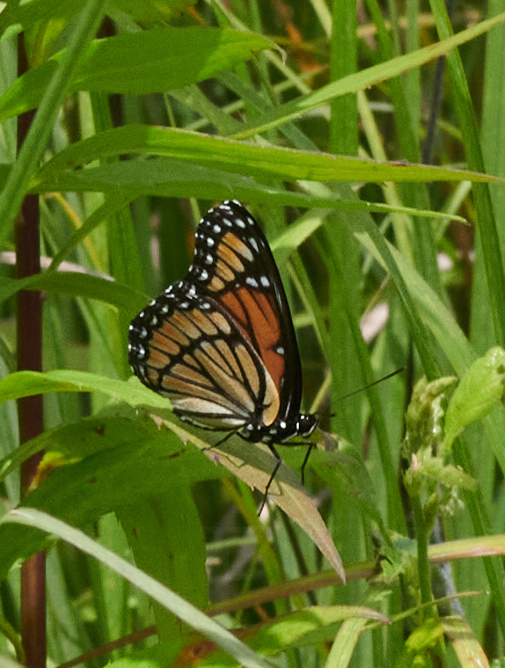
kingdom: Animalia
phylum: Arthropoda
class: Insecta
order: Lepidoptera
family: Nymphalidae
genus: Limenitis
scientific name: Limenitis archippus
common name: Viceroy
